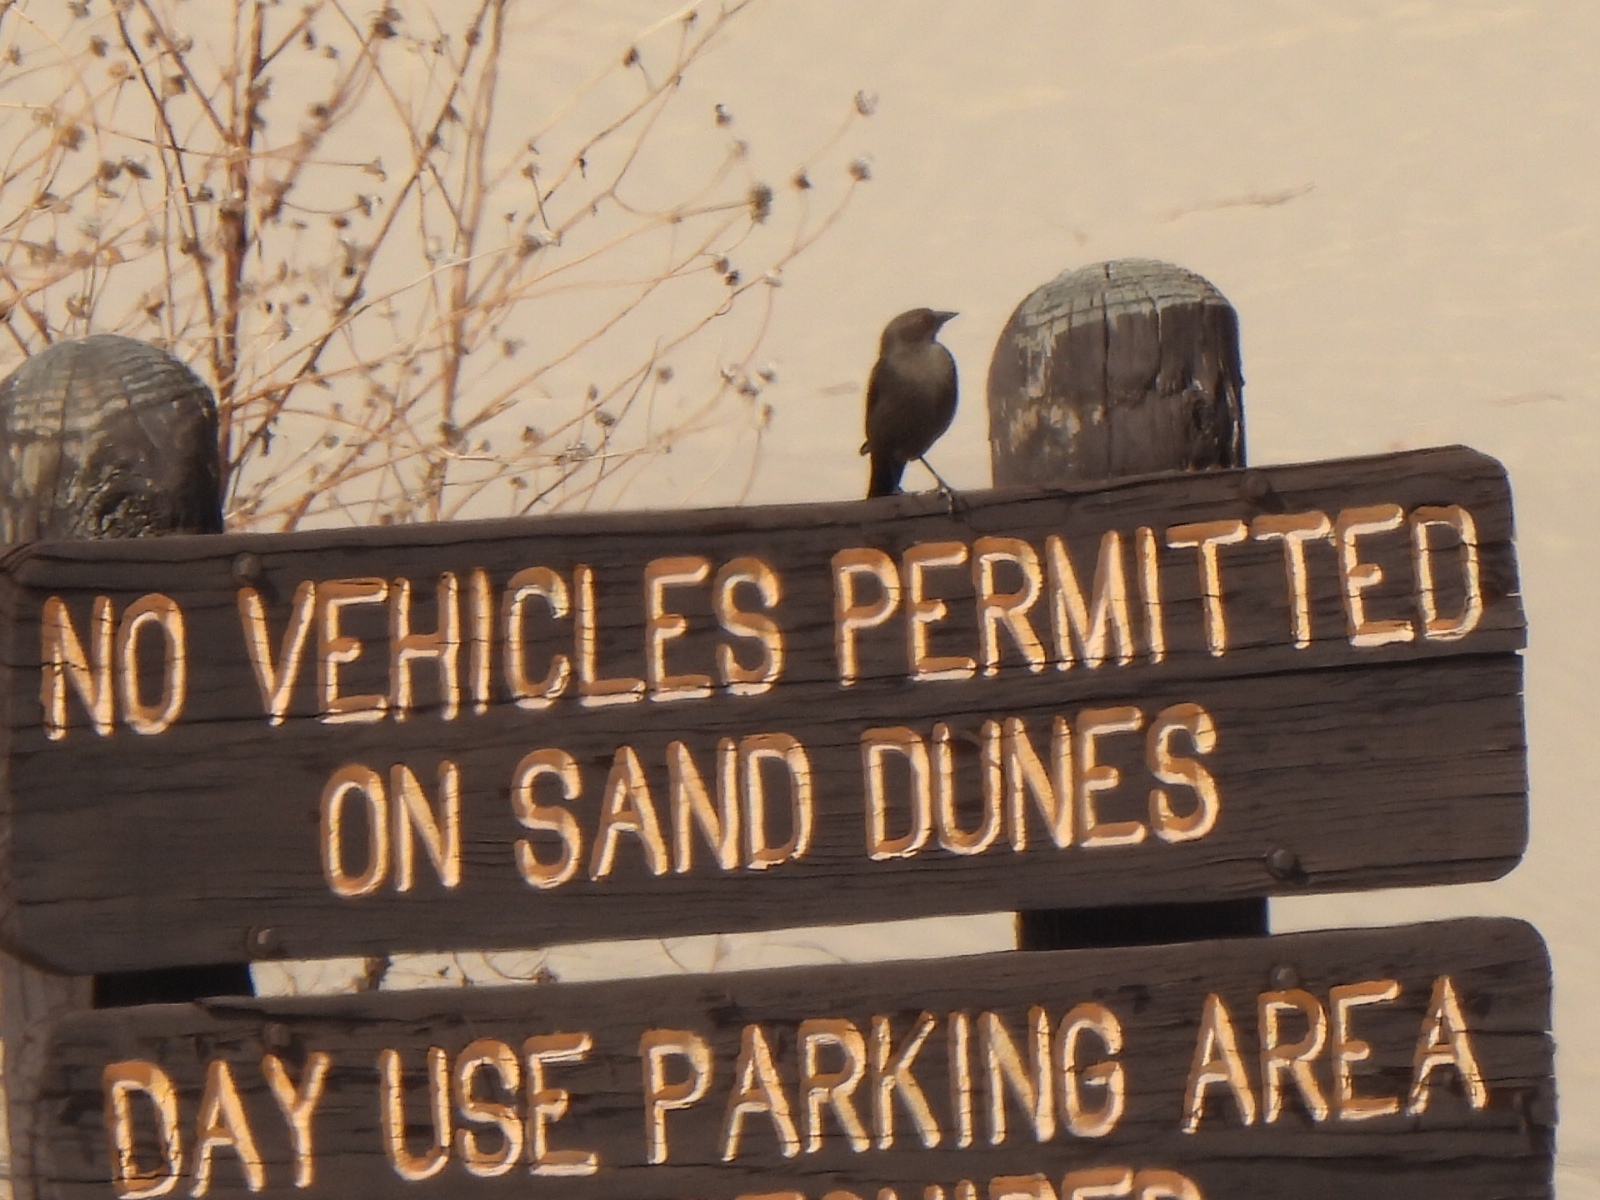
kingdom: Animalia
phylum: Chordata
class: Aves
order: Passeriformes
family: Icteridae
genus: Euphagus
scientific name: Euphagus cyanocephalus
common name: Brewer's blackbird
